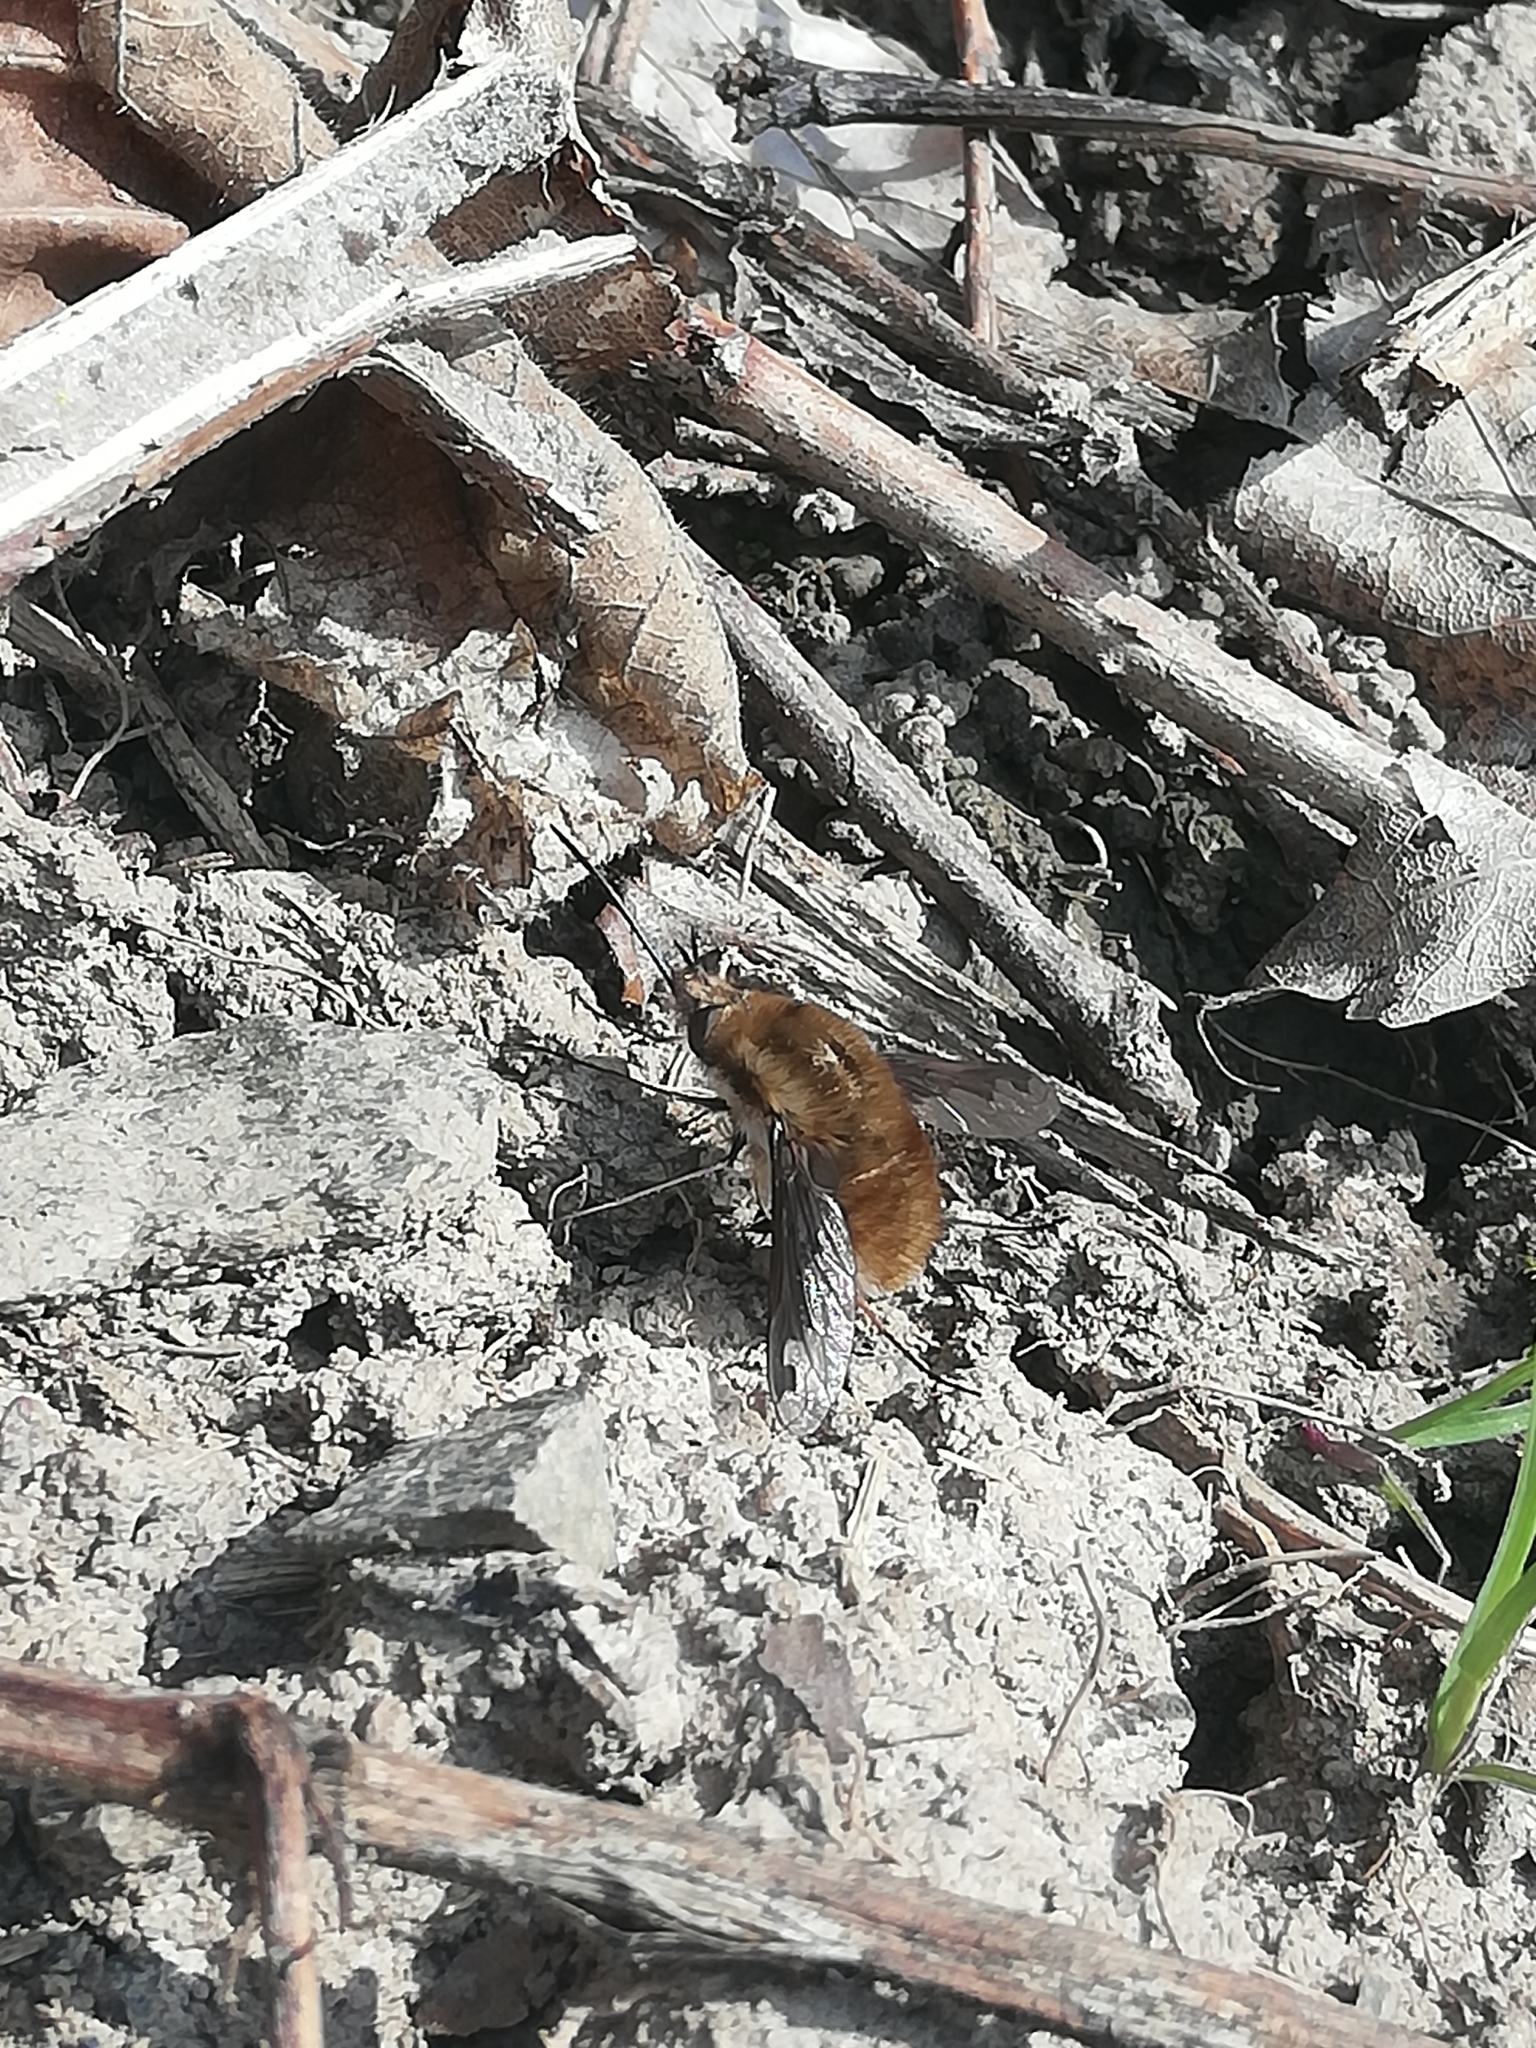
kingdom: Animalia
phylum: Arthropoda
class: Insecta
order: Diptera
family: Bombyliidae
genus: Bombylius
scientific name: Bombylius major
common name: Bee fly
